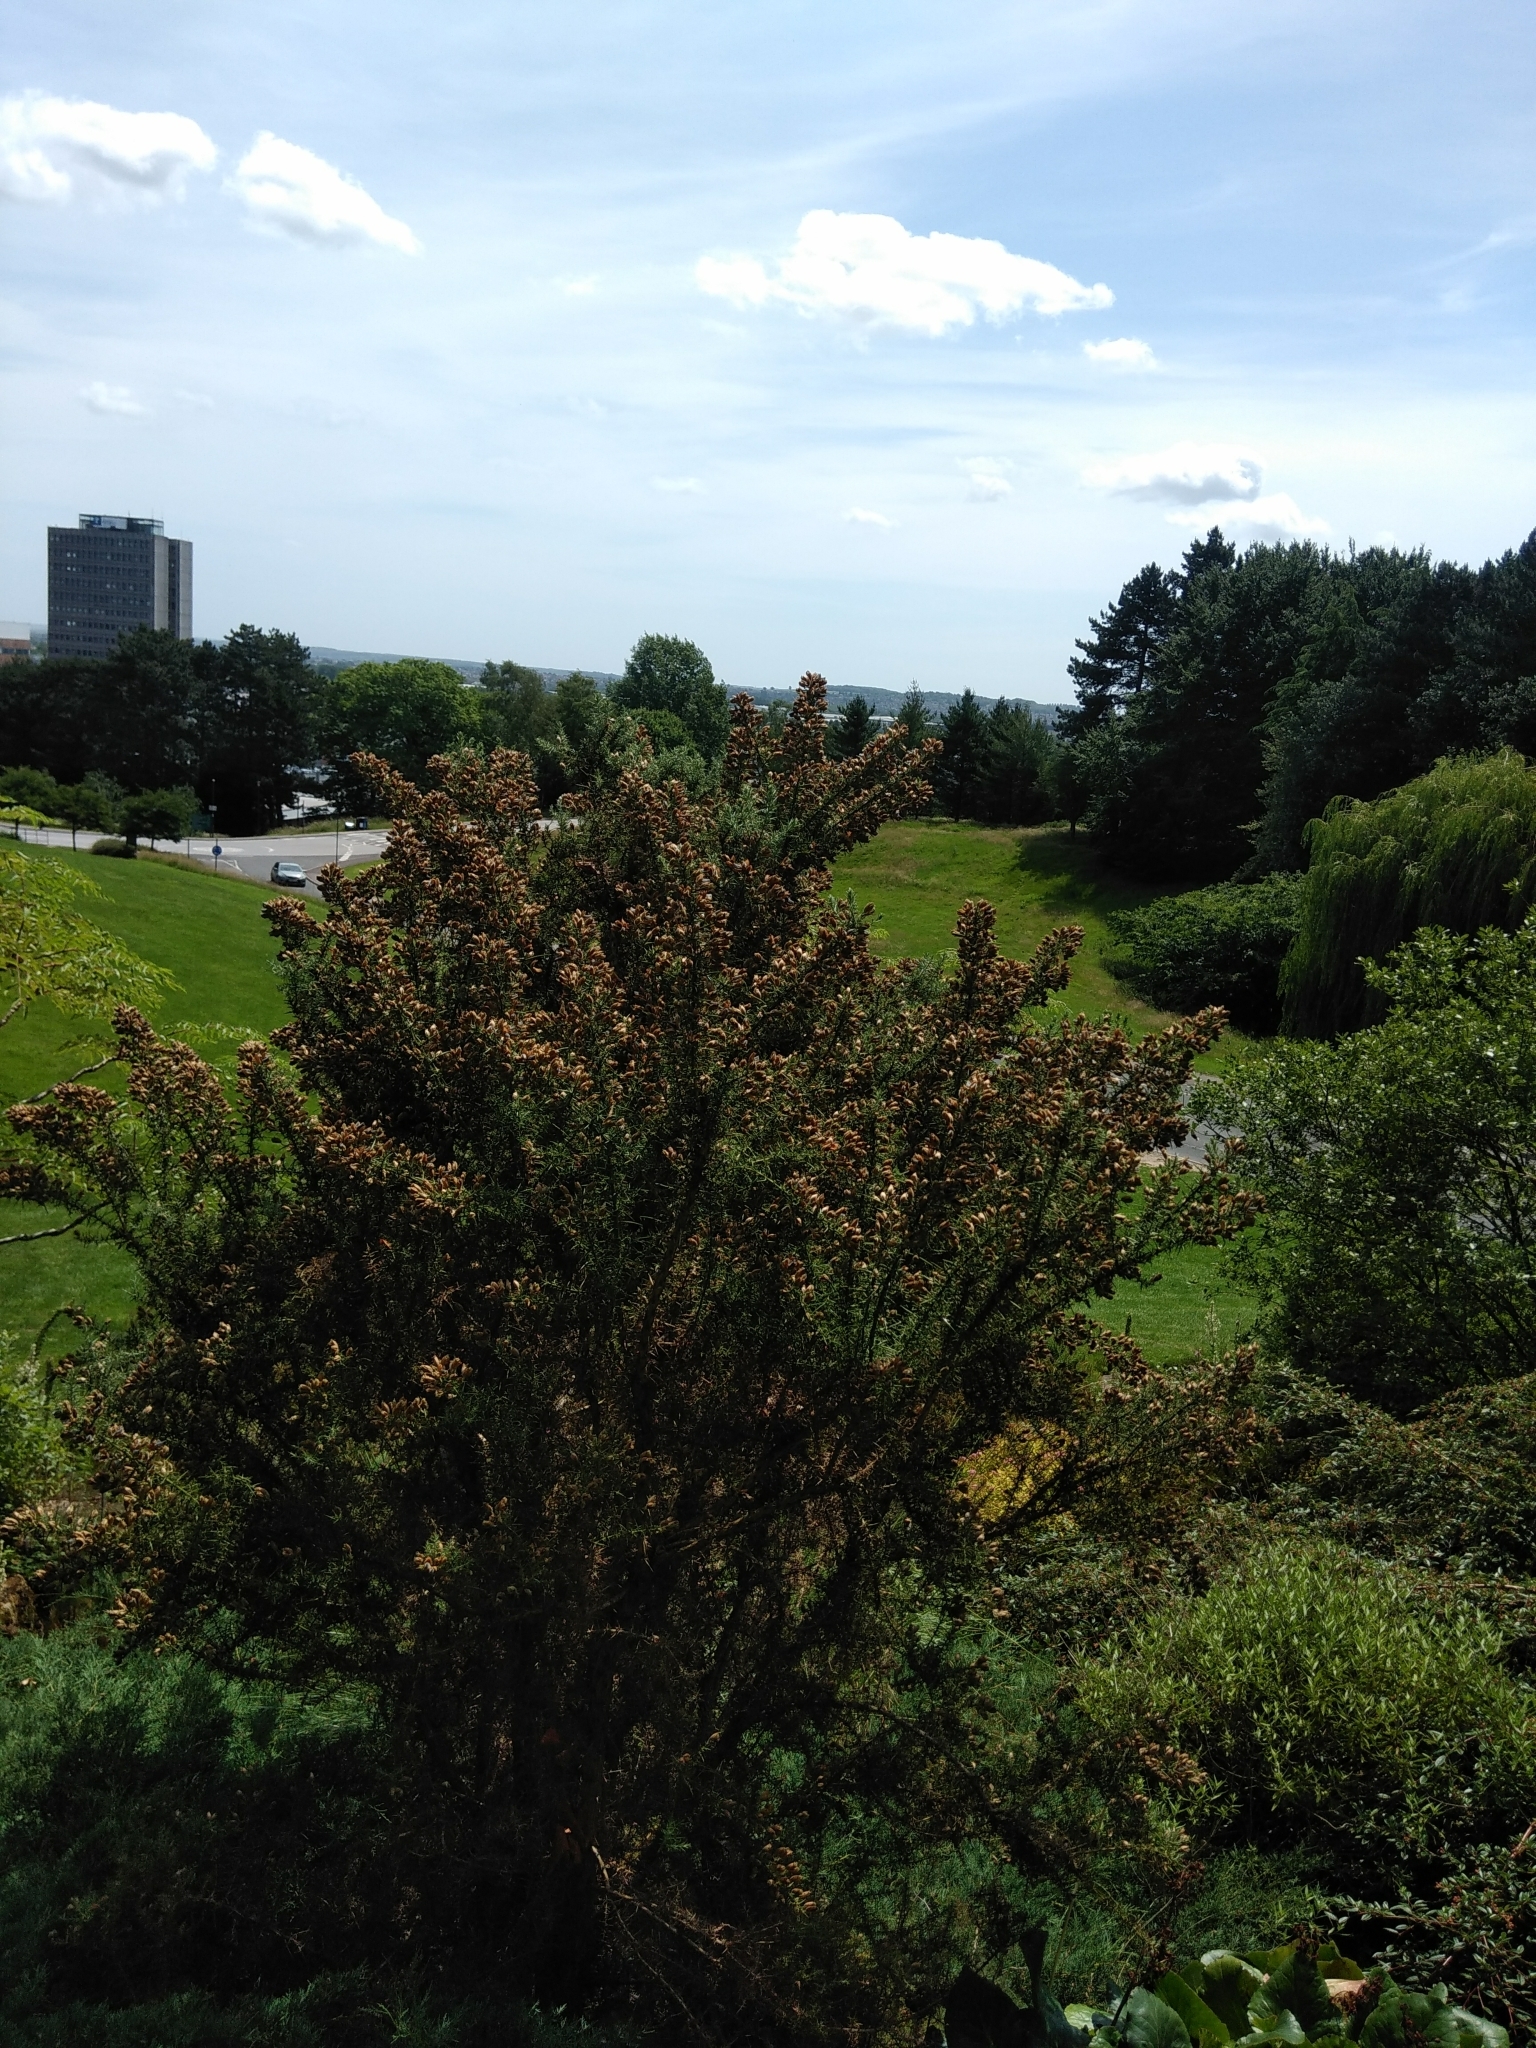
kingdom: Plantae
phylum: Tracheophyta
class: Magnoliopsida
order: Fabales
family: Fabaceae
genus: Ulex
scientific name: Ulex europaeus
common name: Common gorse
